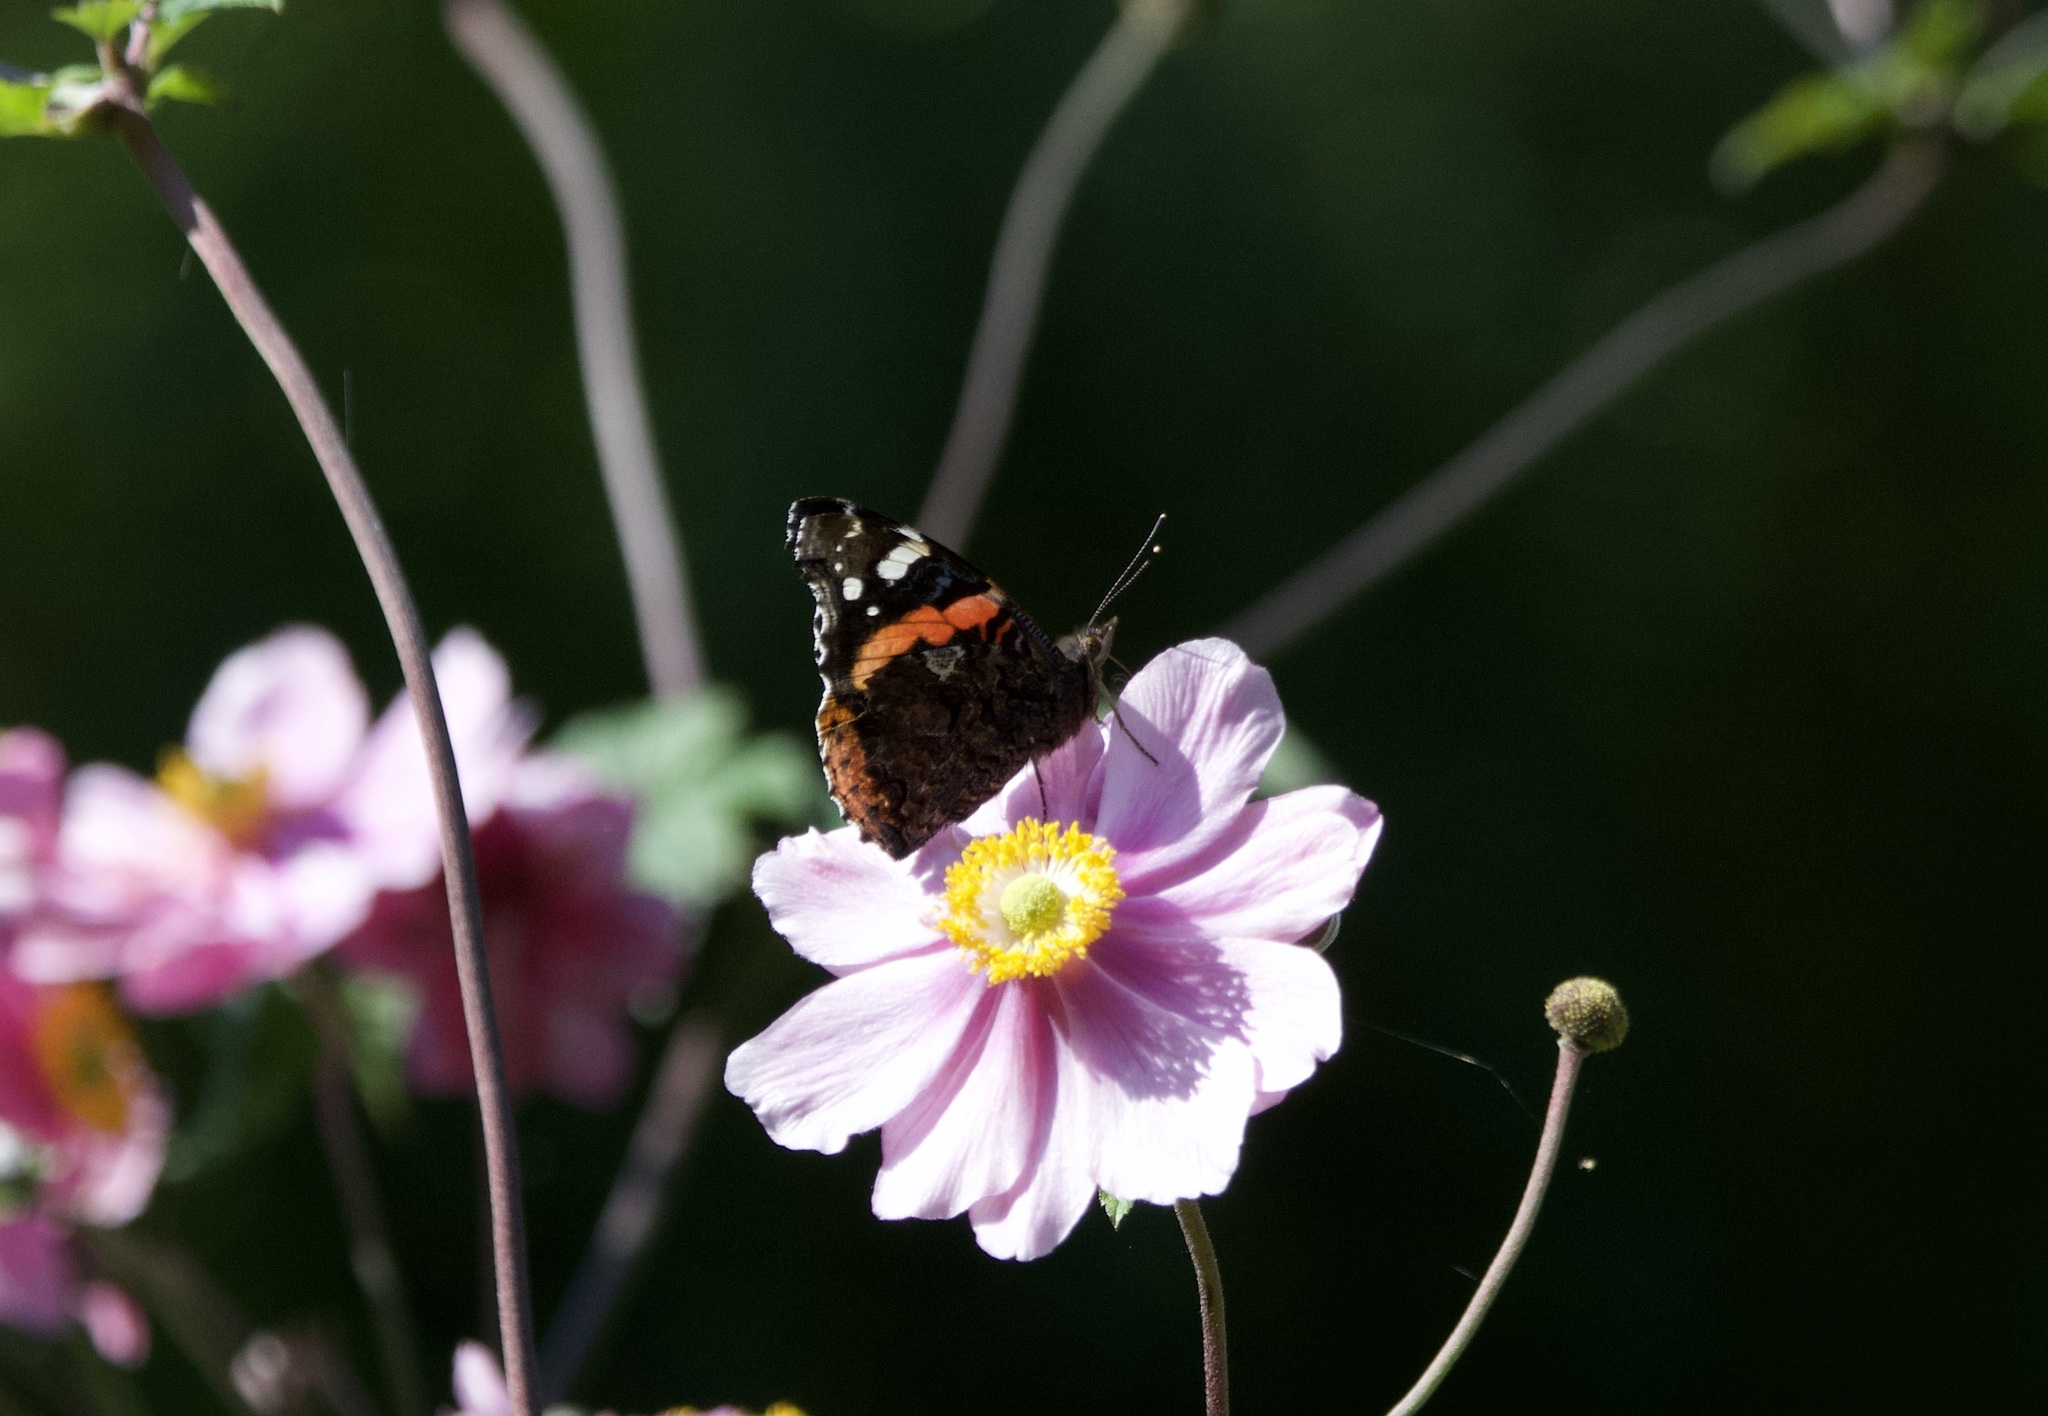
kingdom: Animalia
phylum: Arthropoda
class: Insecta
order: Lepidoptera
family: Nymphalidae
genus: Vanessa
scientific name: Vanessa atalanta
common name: Red admiral
